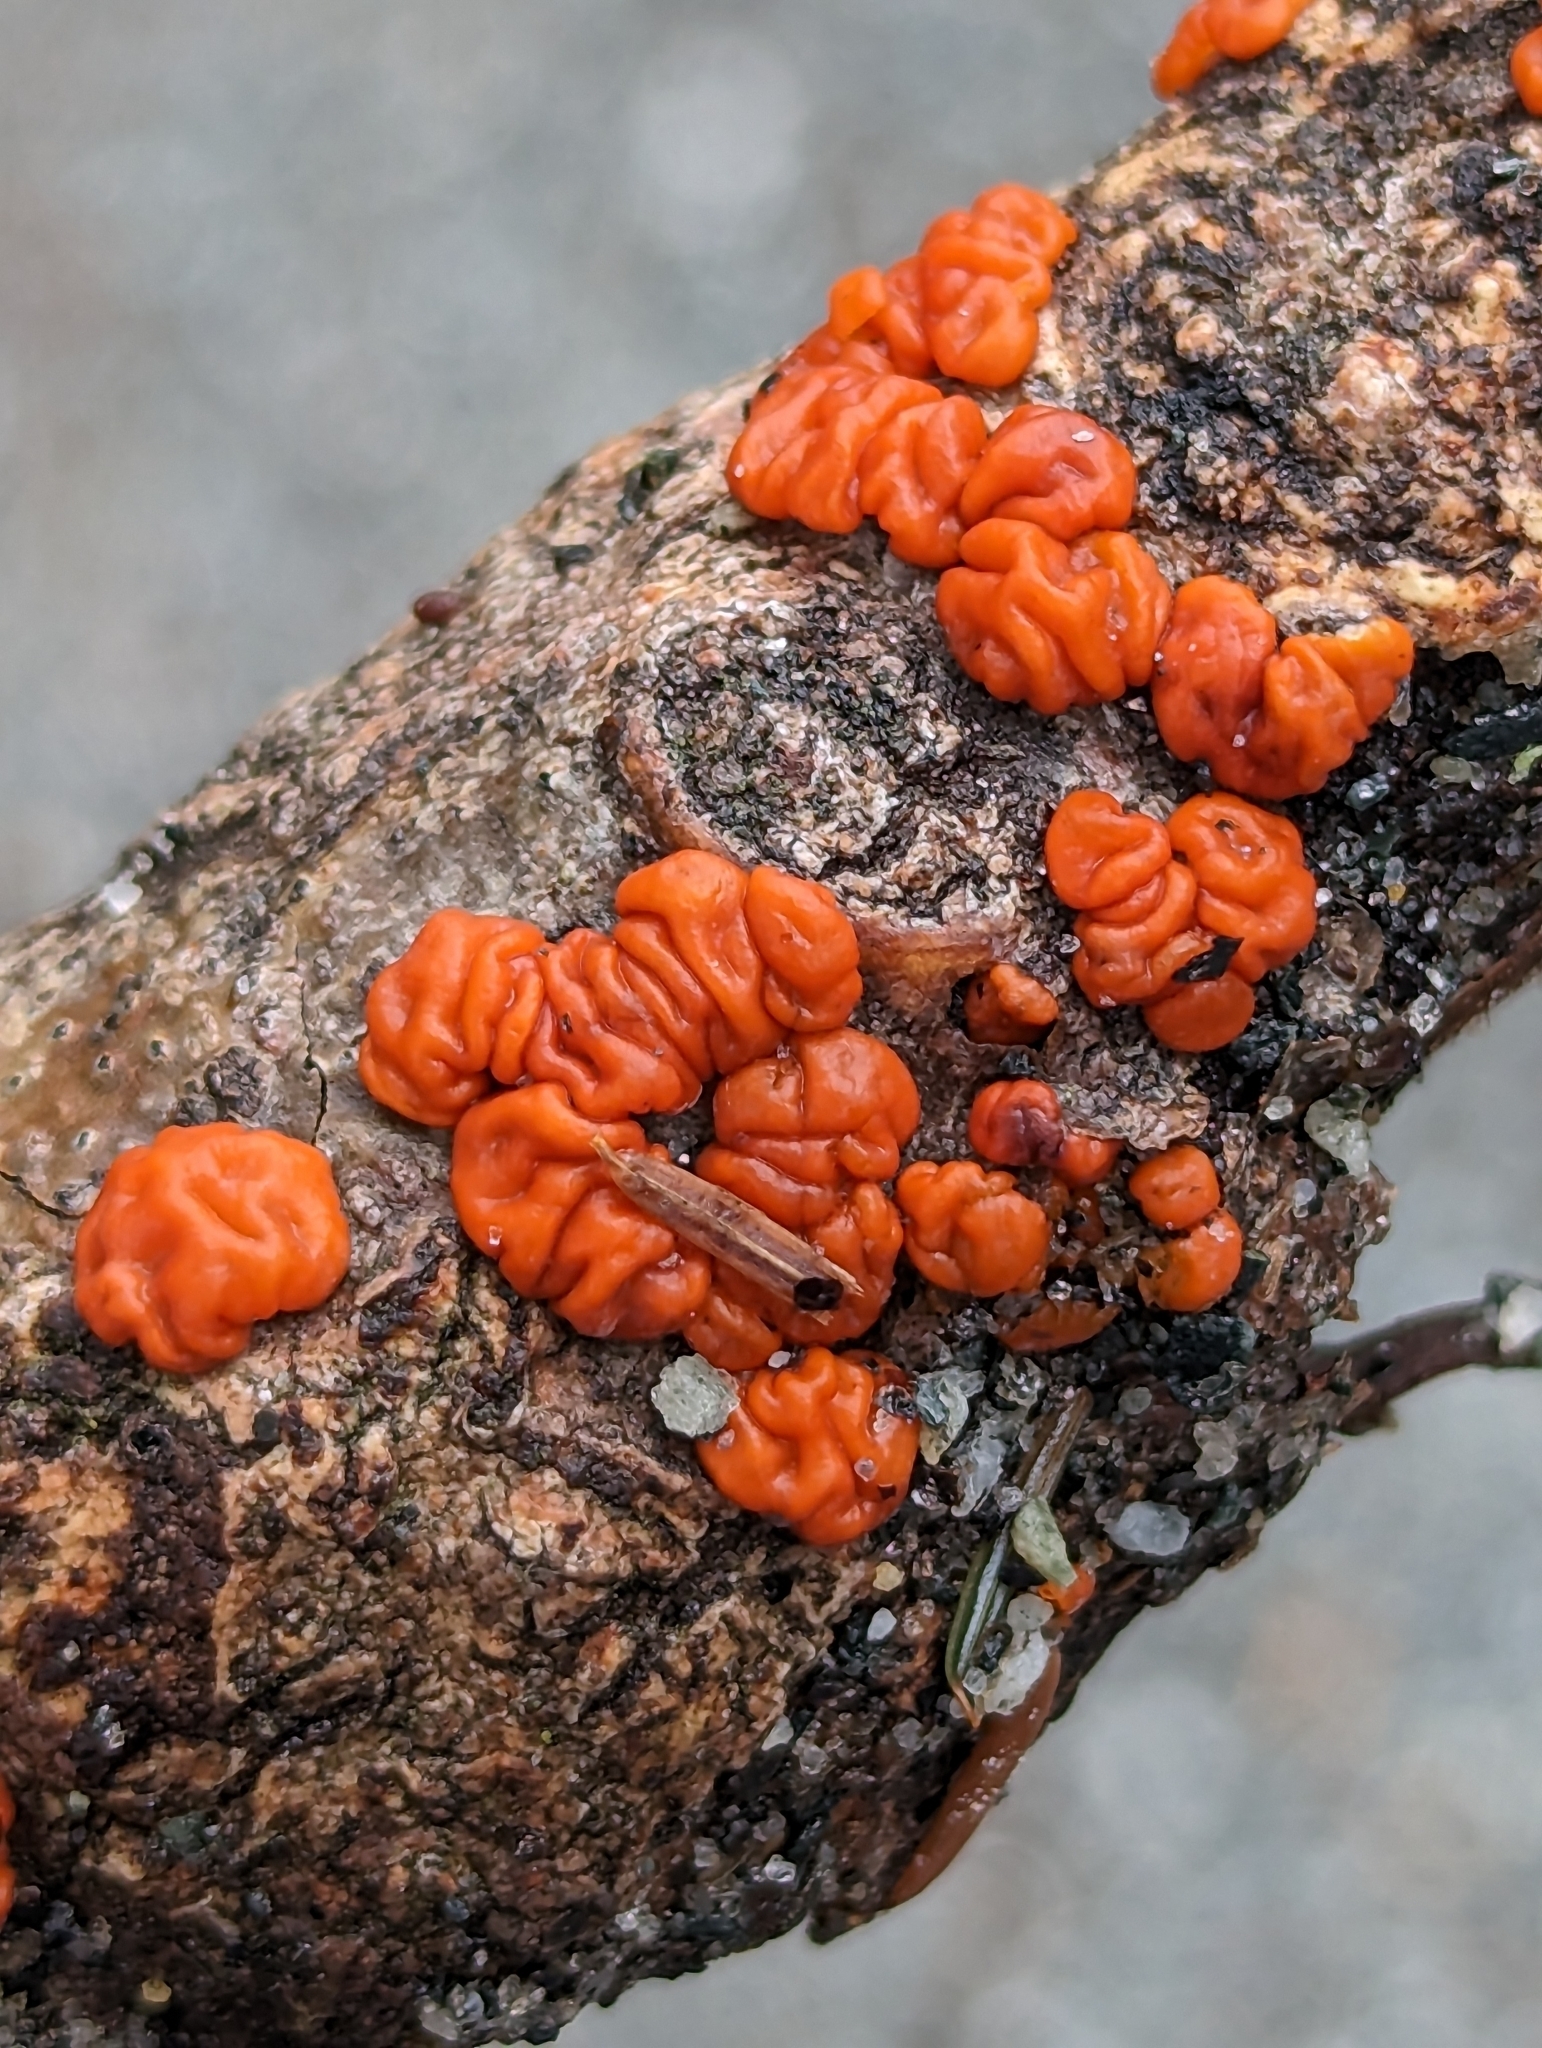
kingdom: Fungi
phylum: Basidiomycota
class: Agaricomycetes
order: Russulales
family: Peniophoraceae
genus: Peniophora
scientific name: Peniophora rufa
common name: Red tree brain fungus
